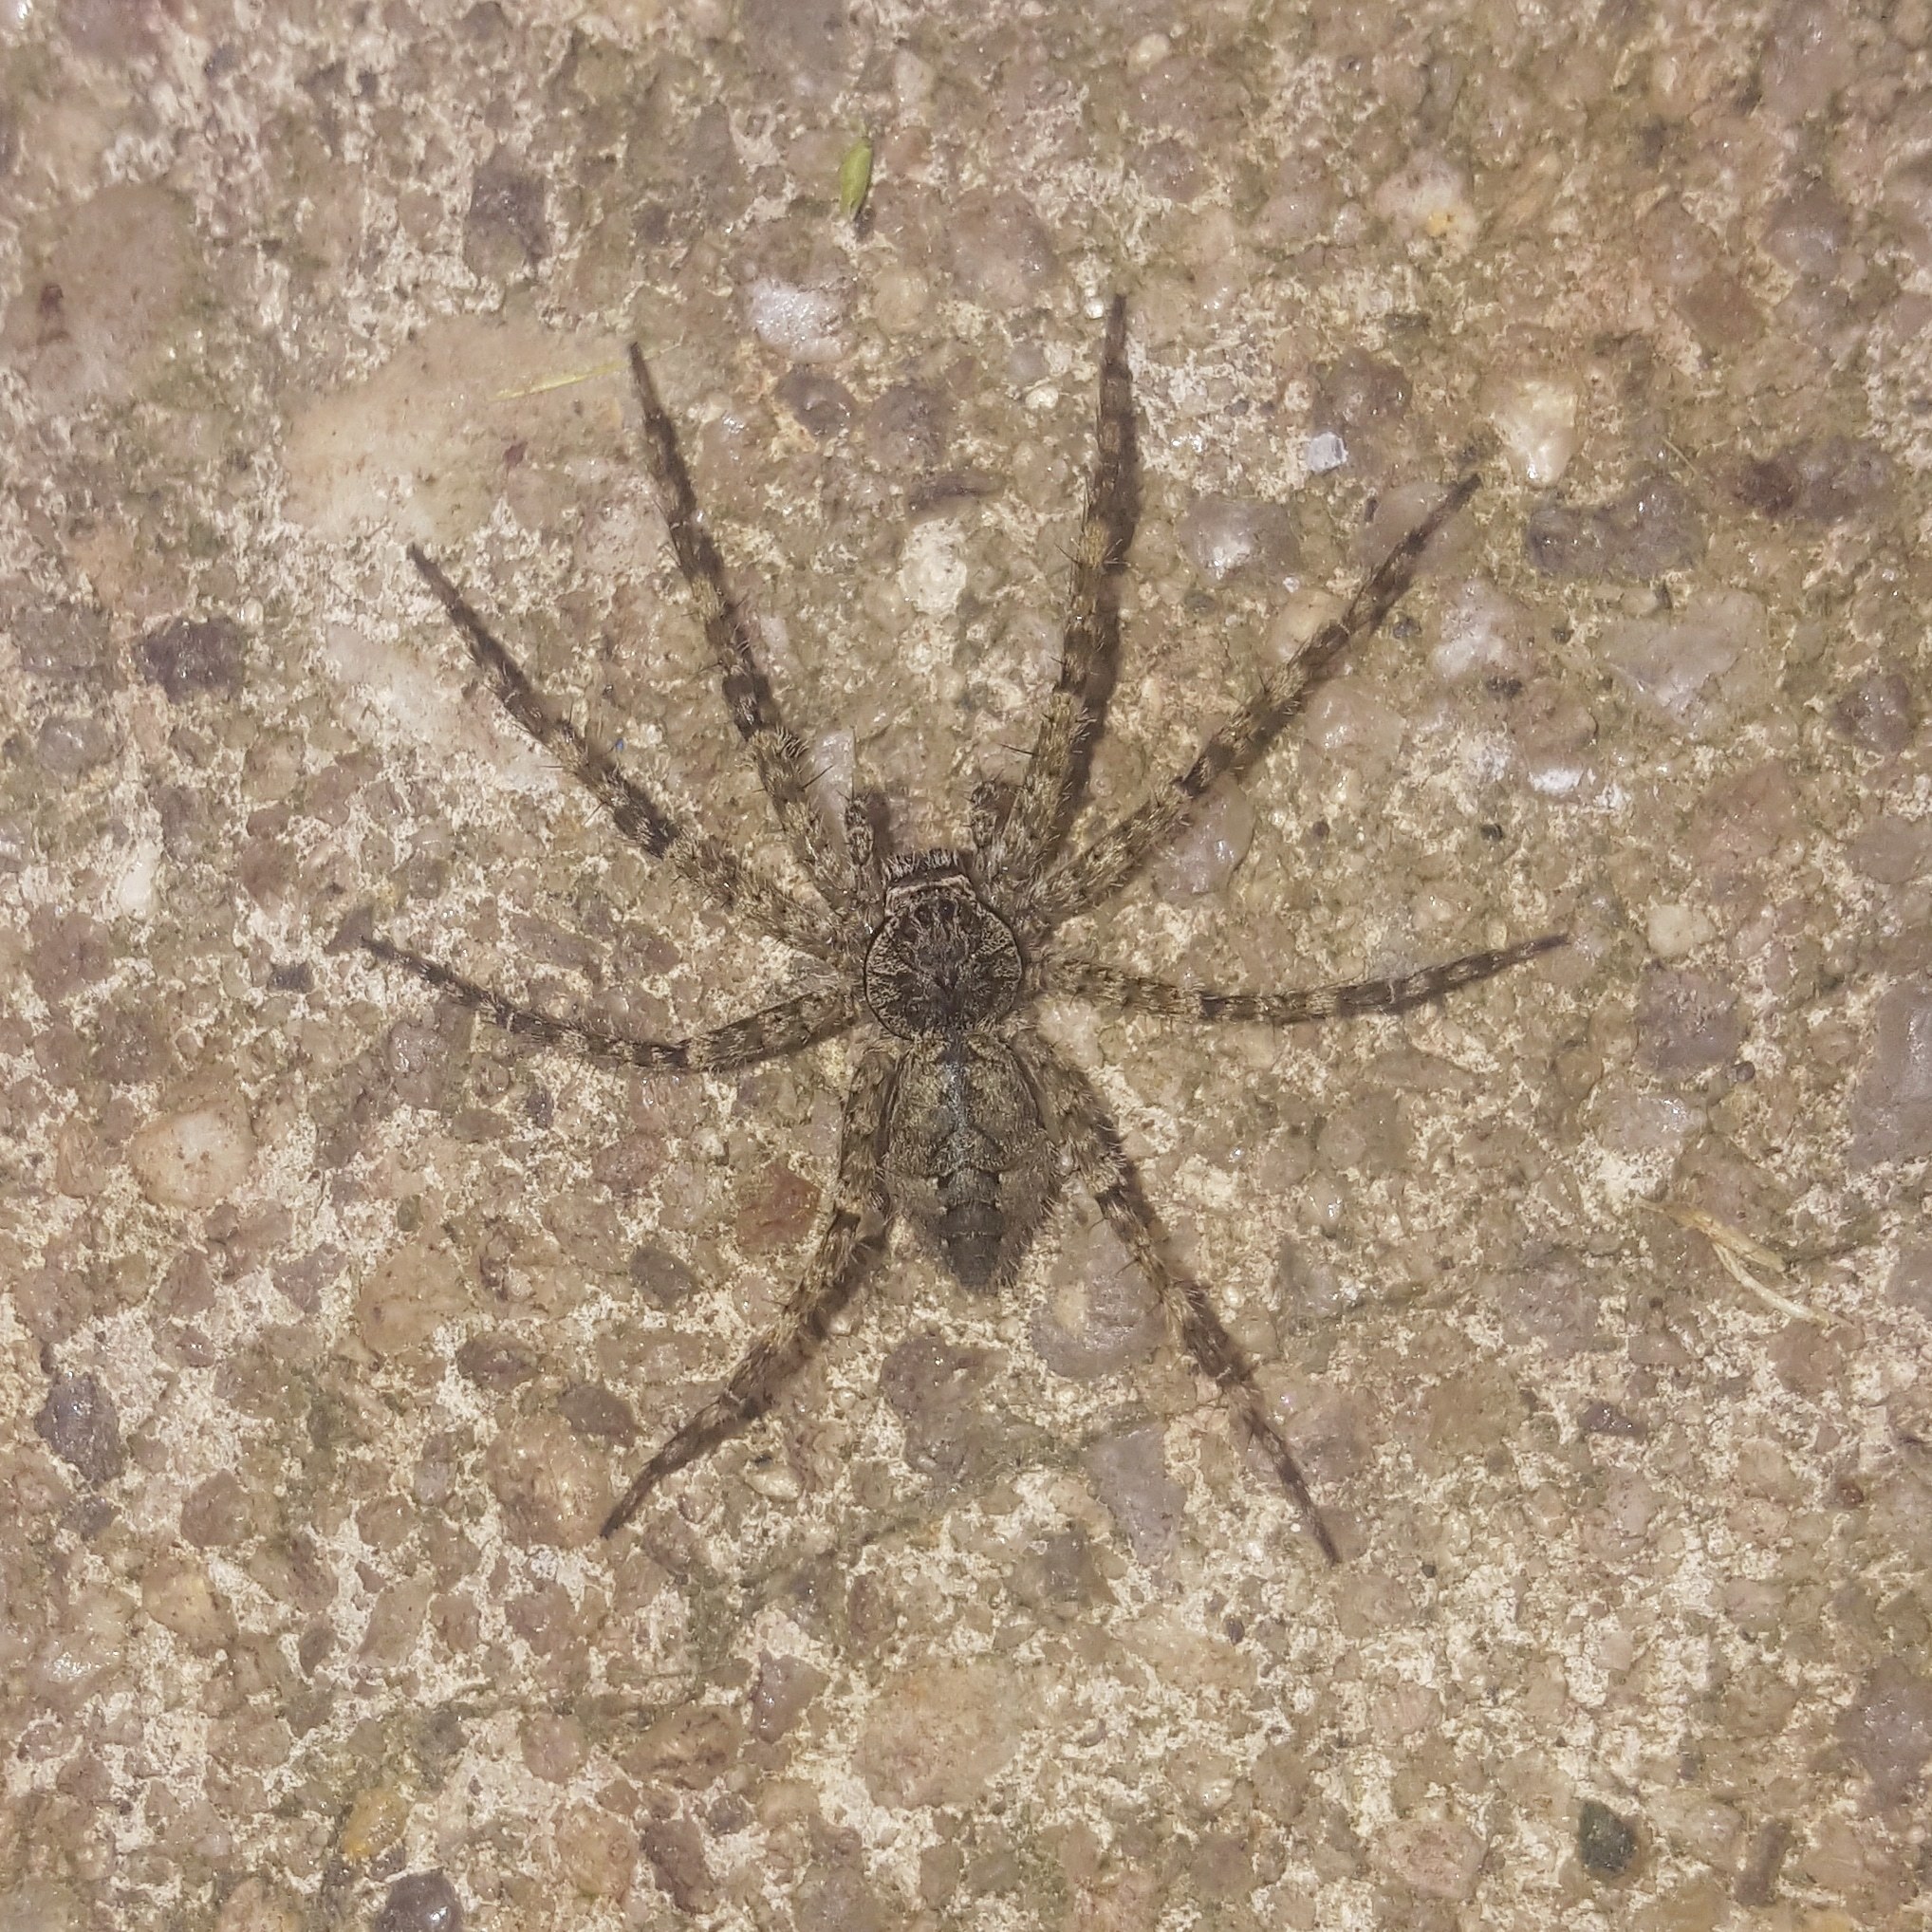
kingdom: Animalia
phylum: Arthropoda
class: Arachnida
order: Araneae
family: Pisauridae
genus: Dolomedes
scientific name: Dolomedes albineus
